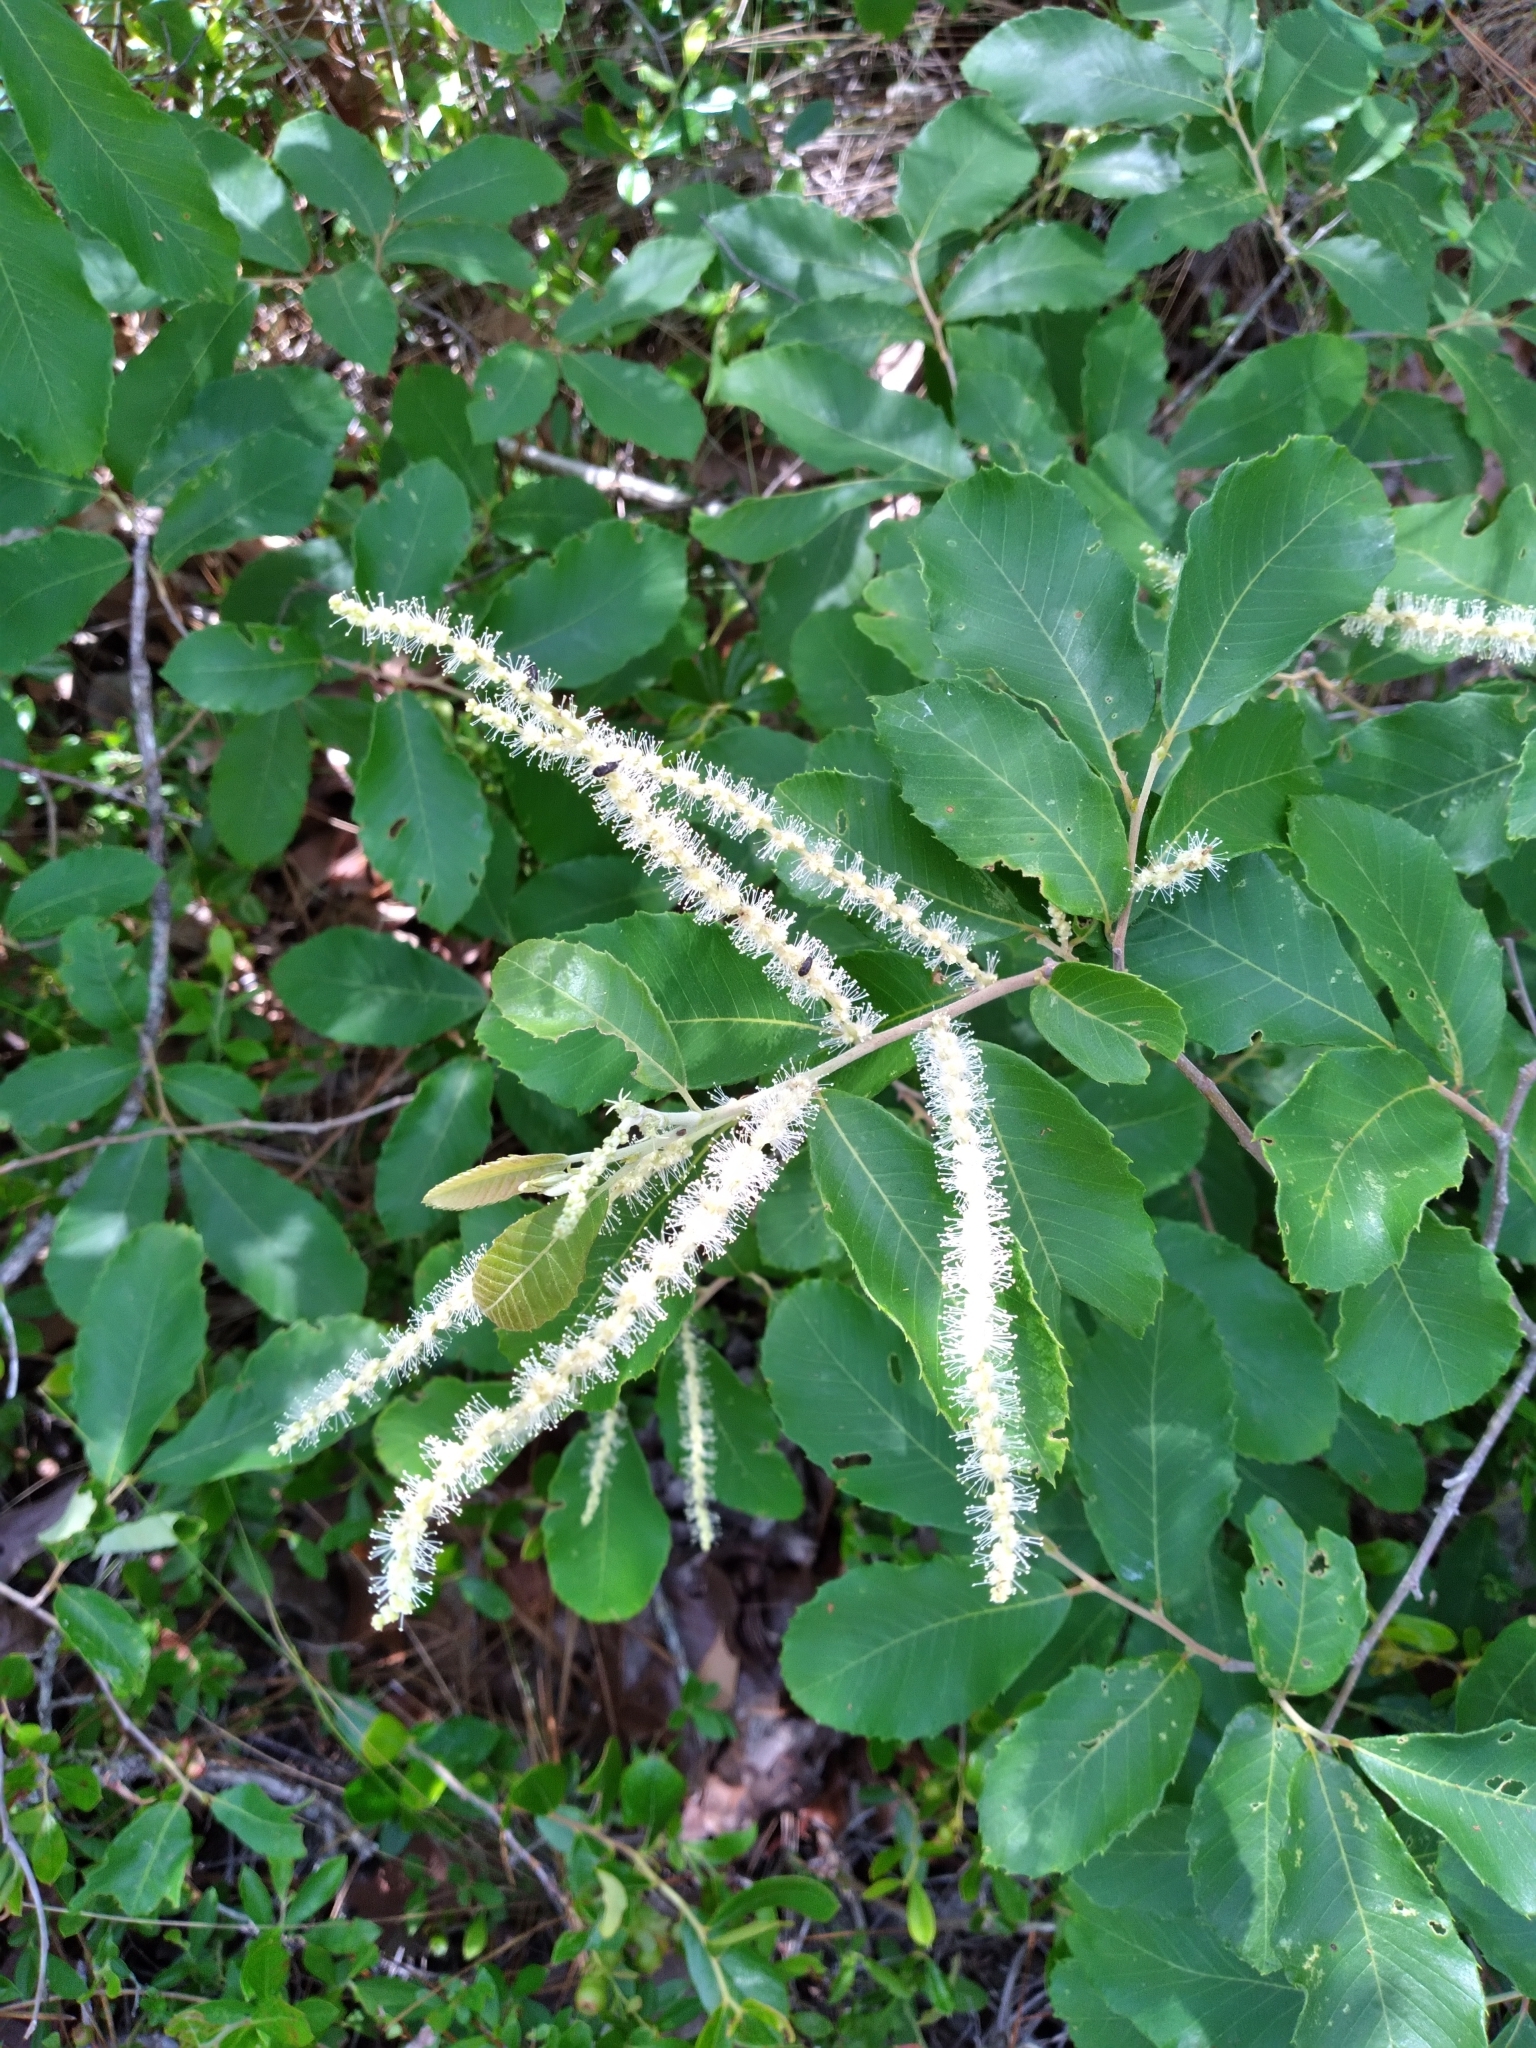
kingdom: Plantae
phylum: Tracheophyta
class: Magnoliopsida
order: Fagales
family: Fagaceae
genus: Castanea
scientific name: Castanea pumila
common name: Chinkapin
